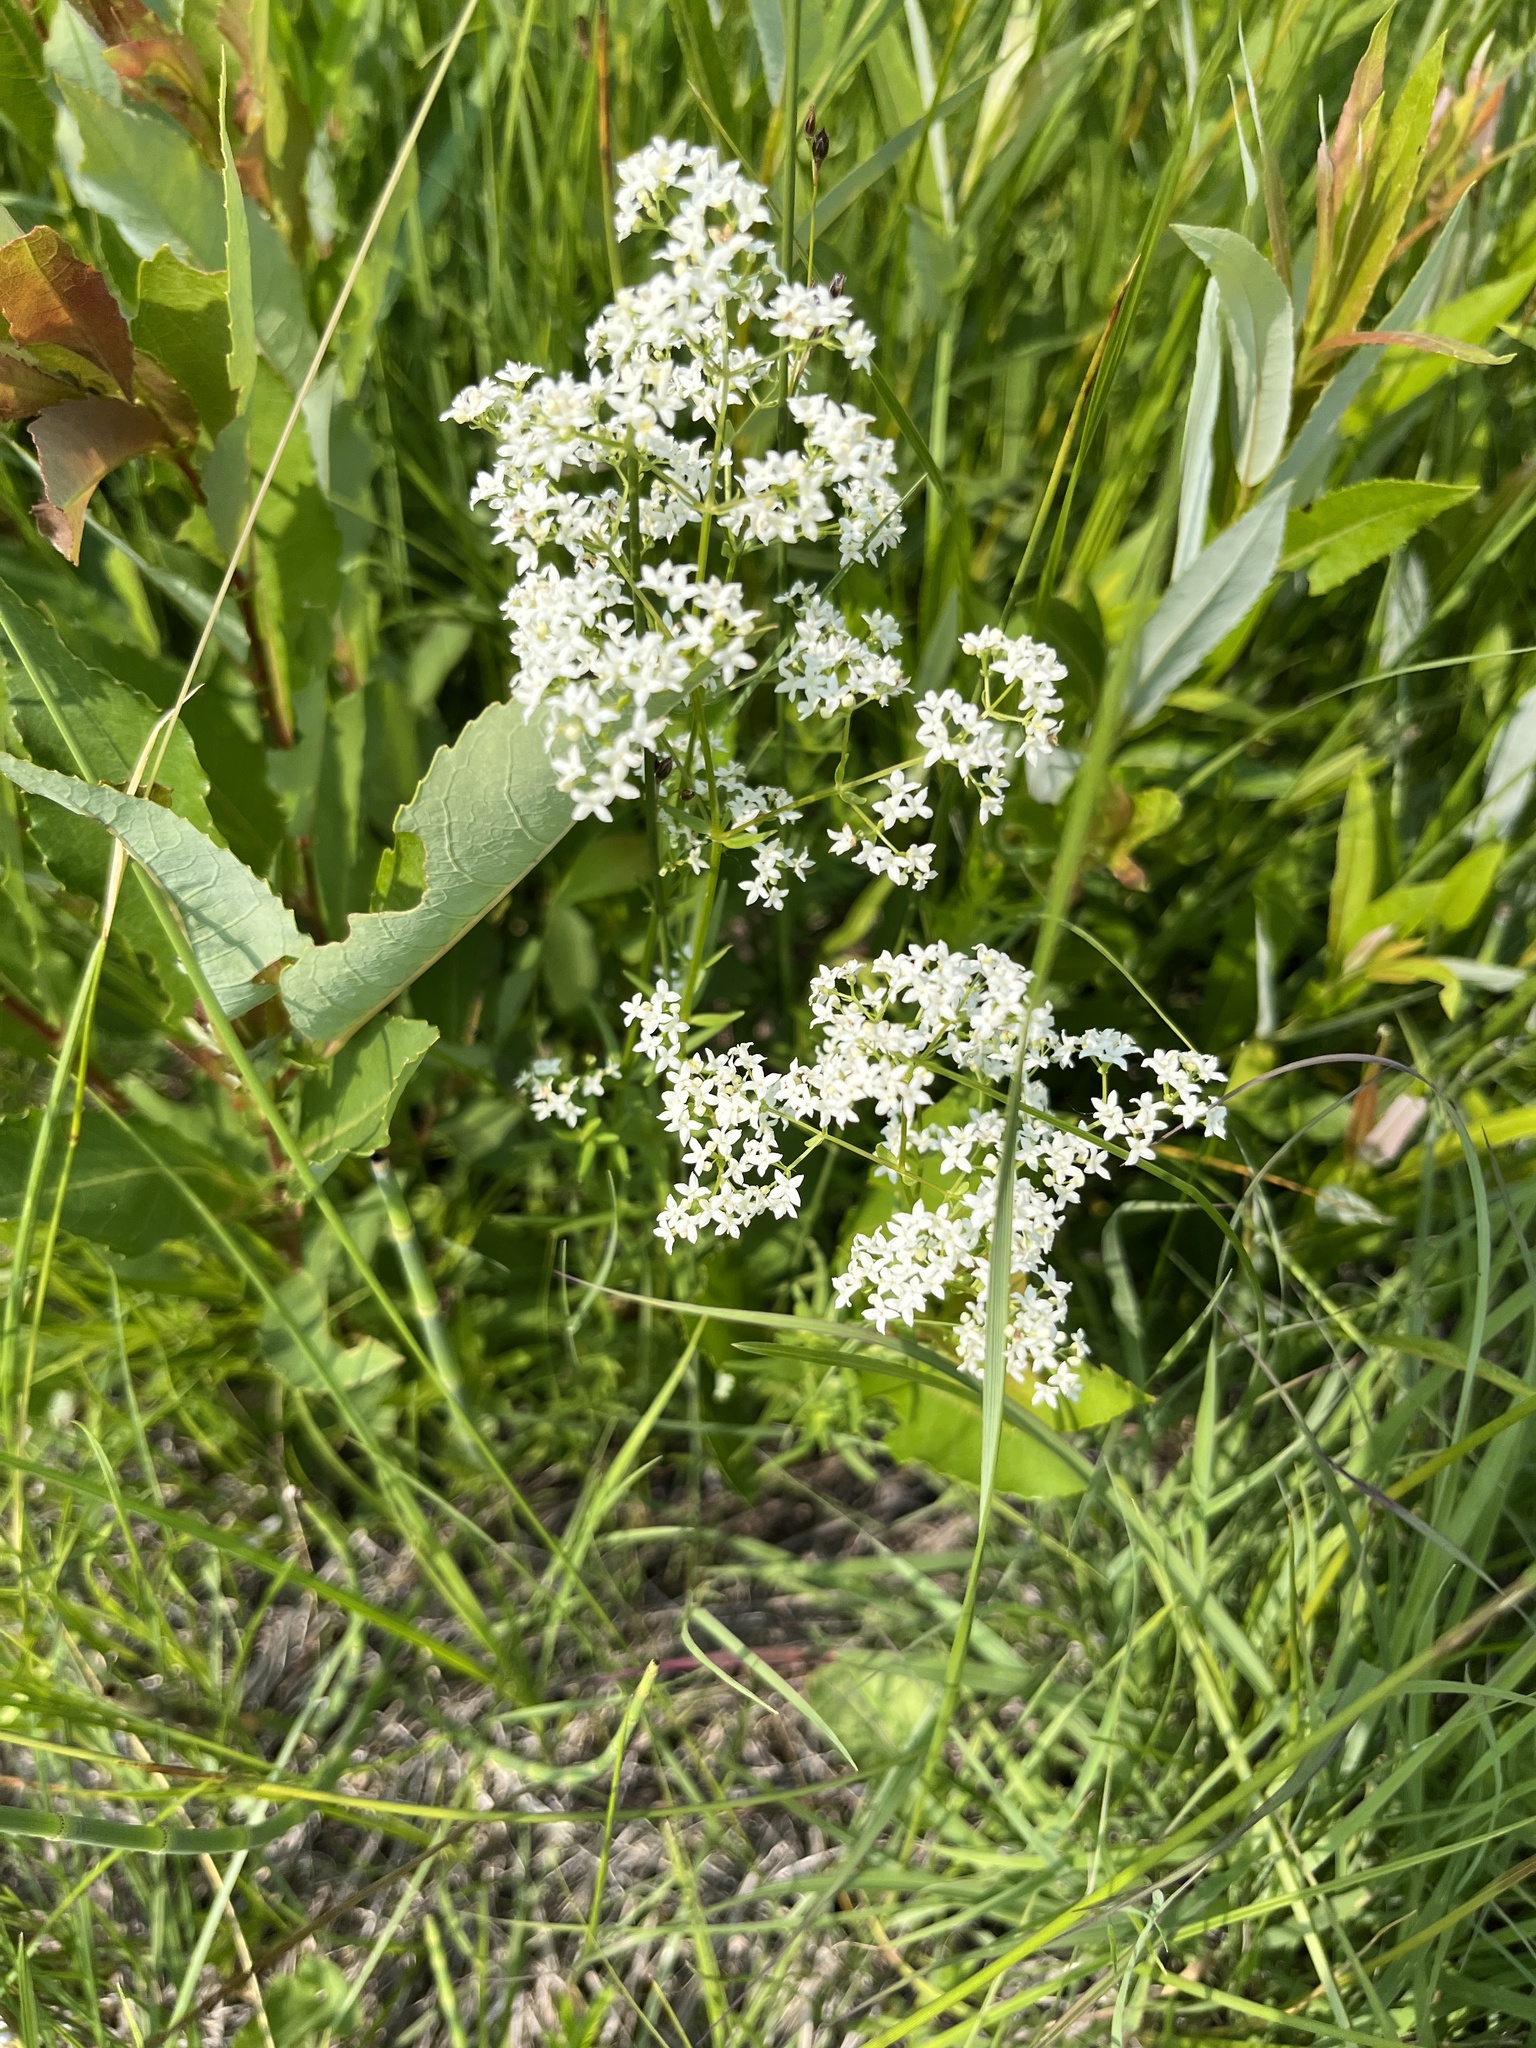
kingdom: Plantae
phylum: Tracheophyta
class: Magnoliopsida
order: Gentianales
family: Rubiaceae
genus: Galium
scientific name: Galium boreale
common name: Northern bedstraw
